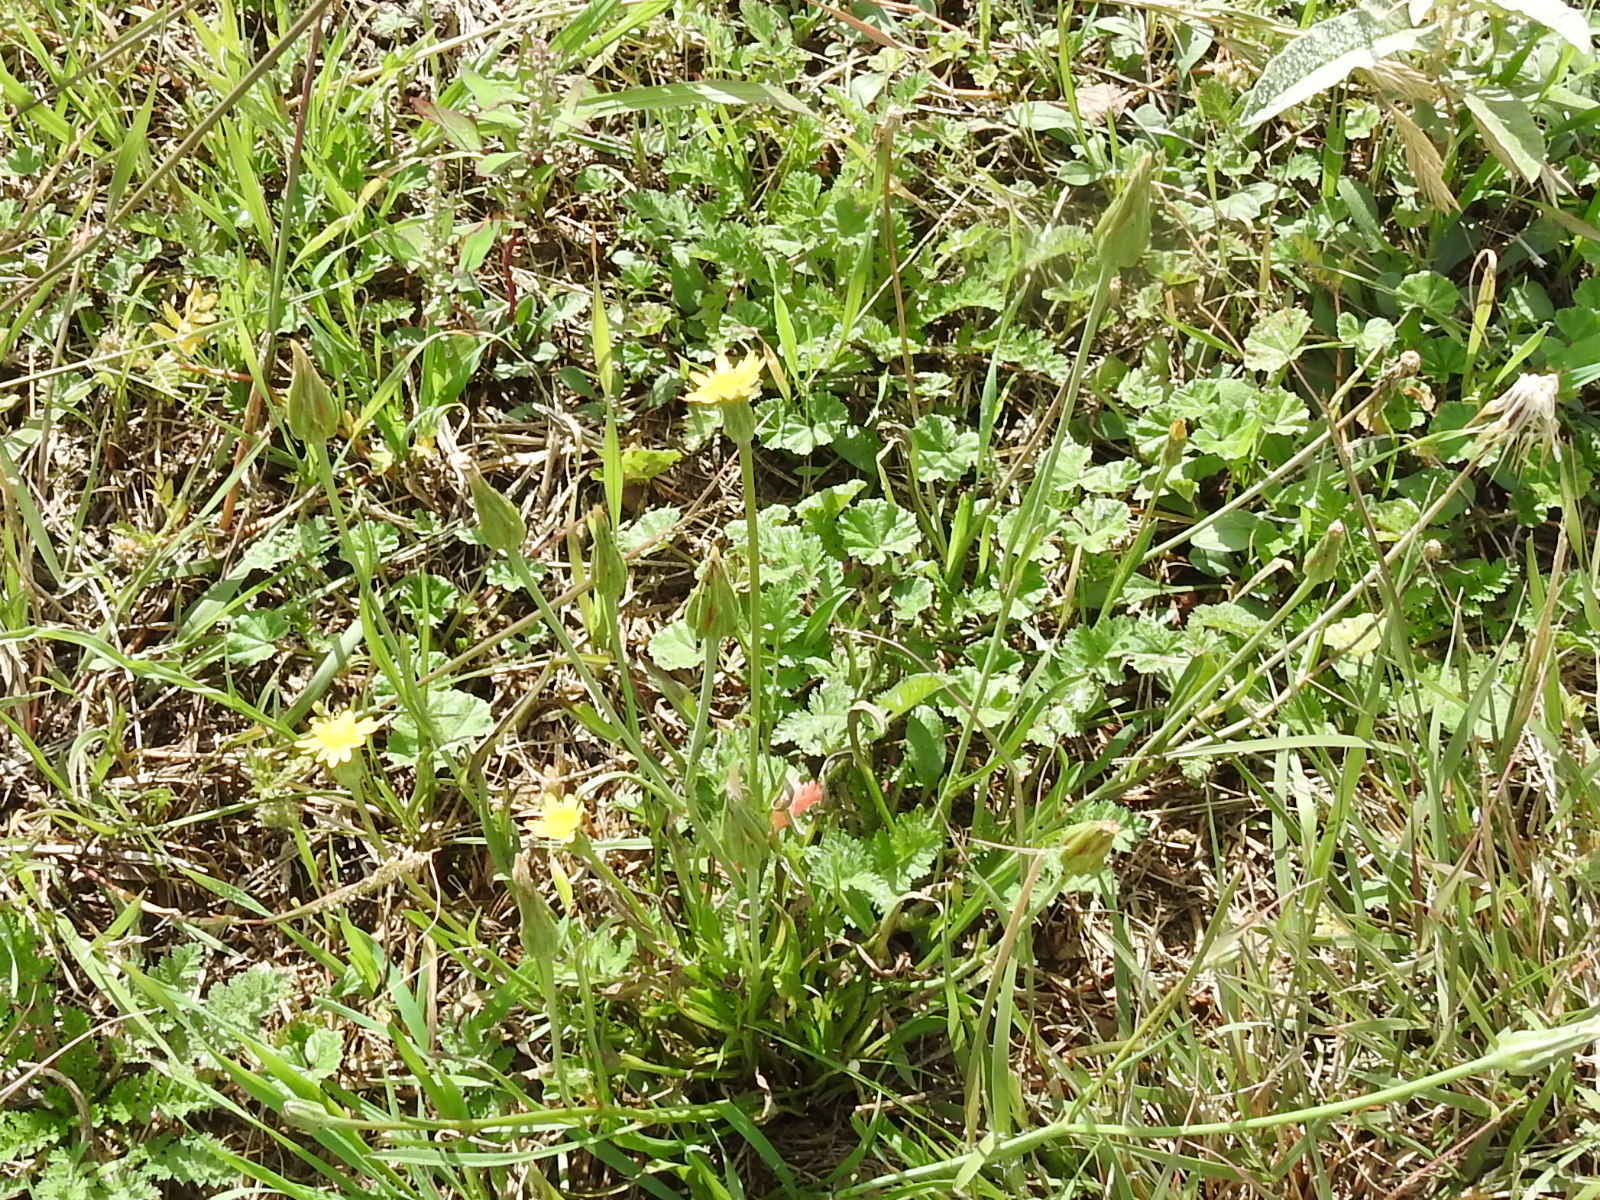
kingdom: Plantae
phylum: Tracheophyta
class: Magnoliopsida
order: Asterales
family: Asteraceae
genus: Scorzonera
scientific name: Scorzonera laciniata
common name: Cutleaf vipergrass
